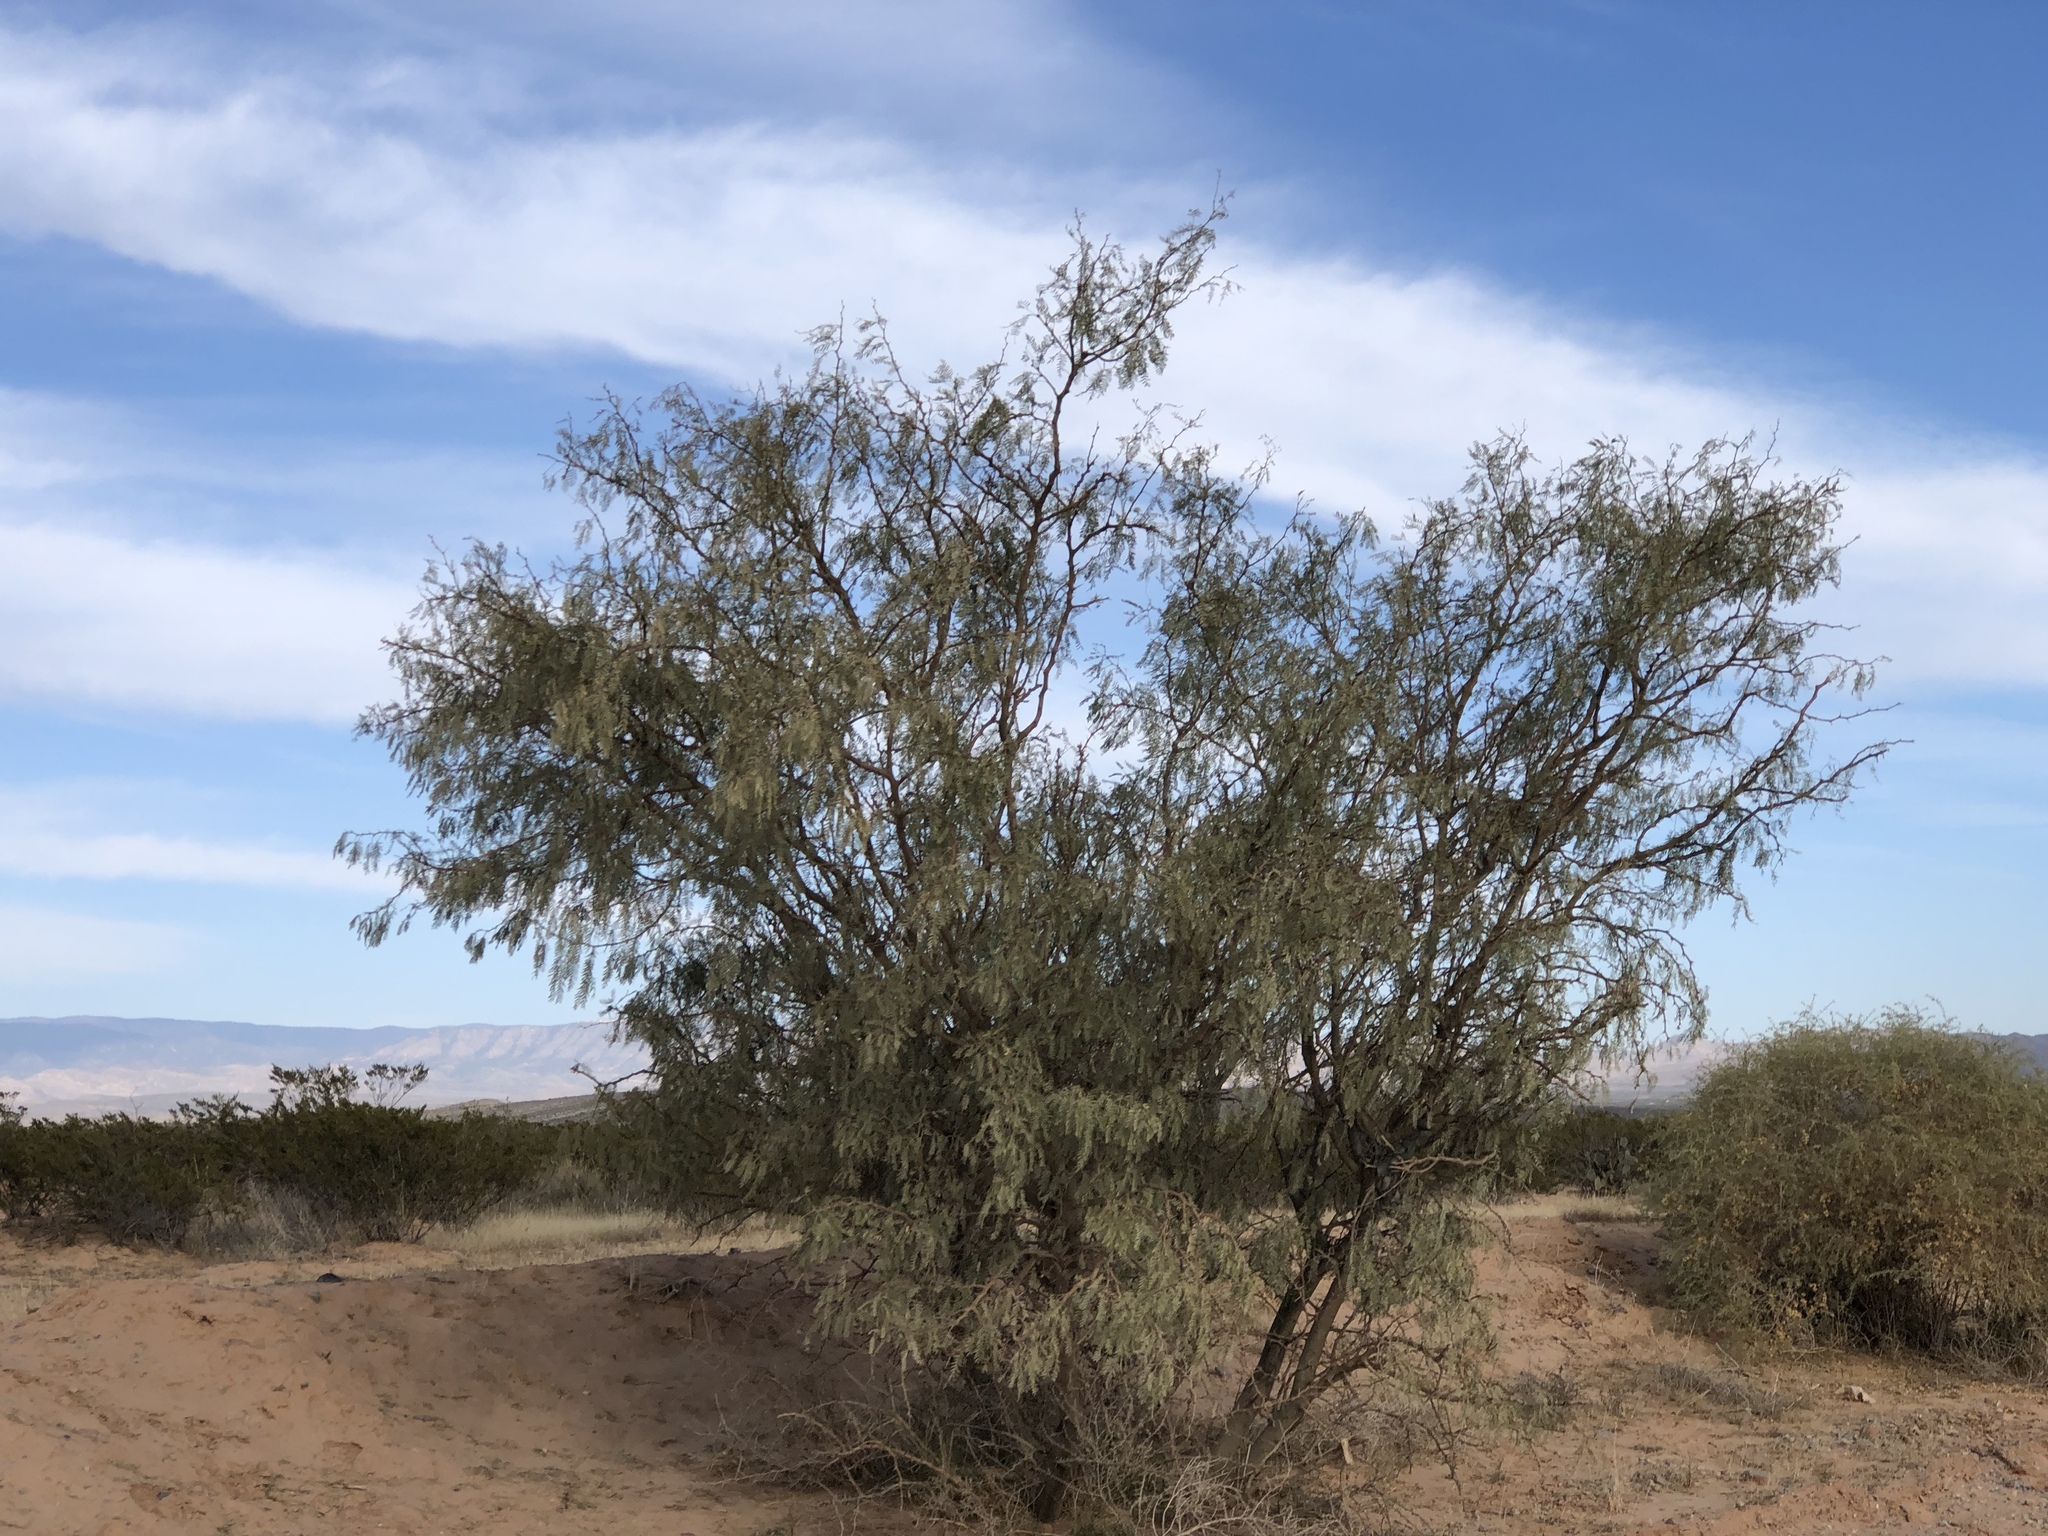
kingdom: Plantae
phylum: Tracheophyta
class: Magnoliopsida
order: Fabales
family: Fabaceae
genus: Prosopis
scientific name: Prosopis glandulosa
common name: Honey mesquite
